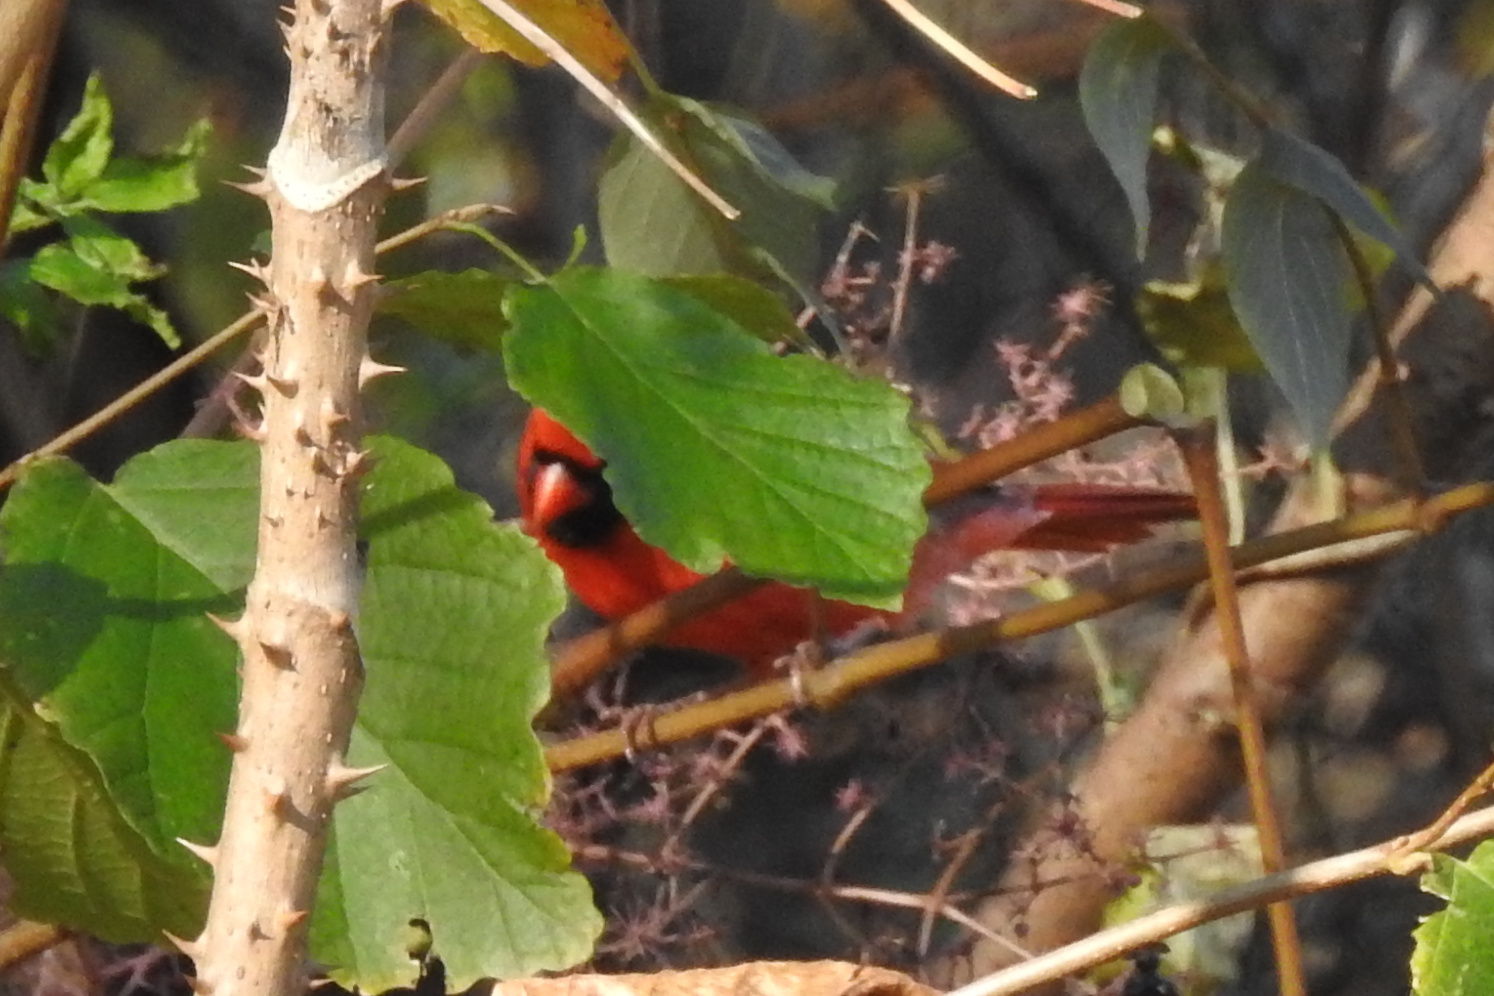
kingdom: Animalia
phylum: Chordata
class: Aves
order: Passeriformes
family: Cardinalidae
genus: Cardinalis
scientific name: Cardinalis cardinalis
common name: Northern cardinal
